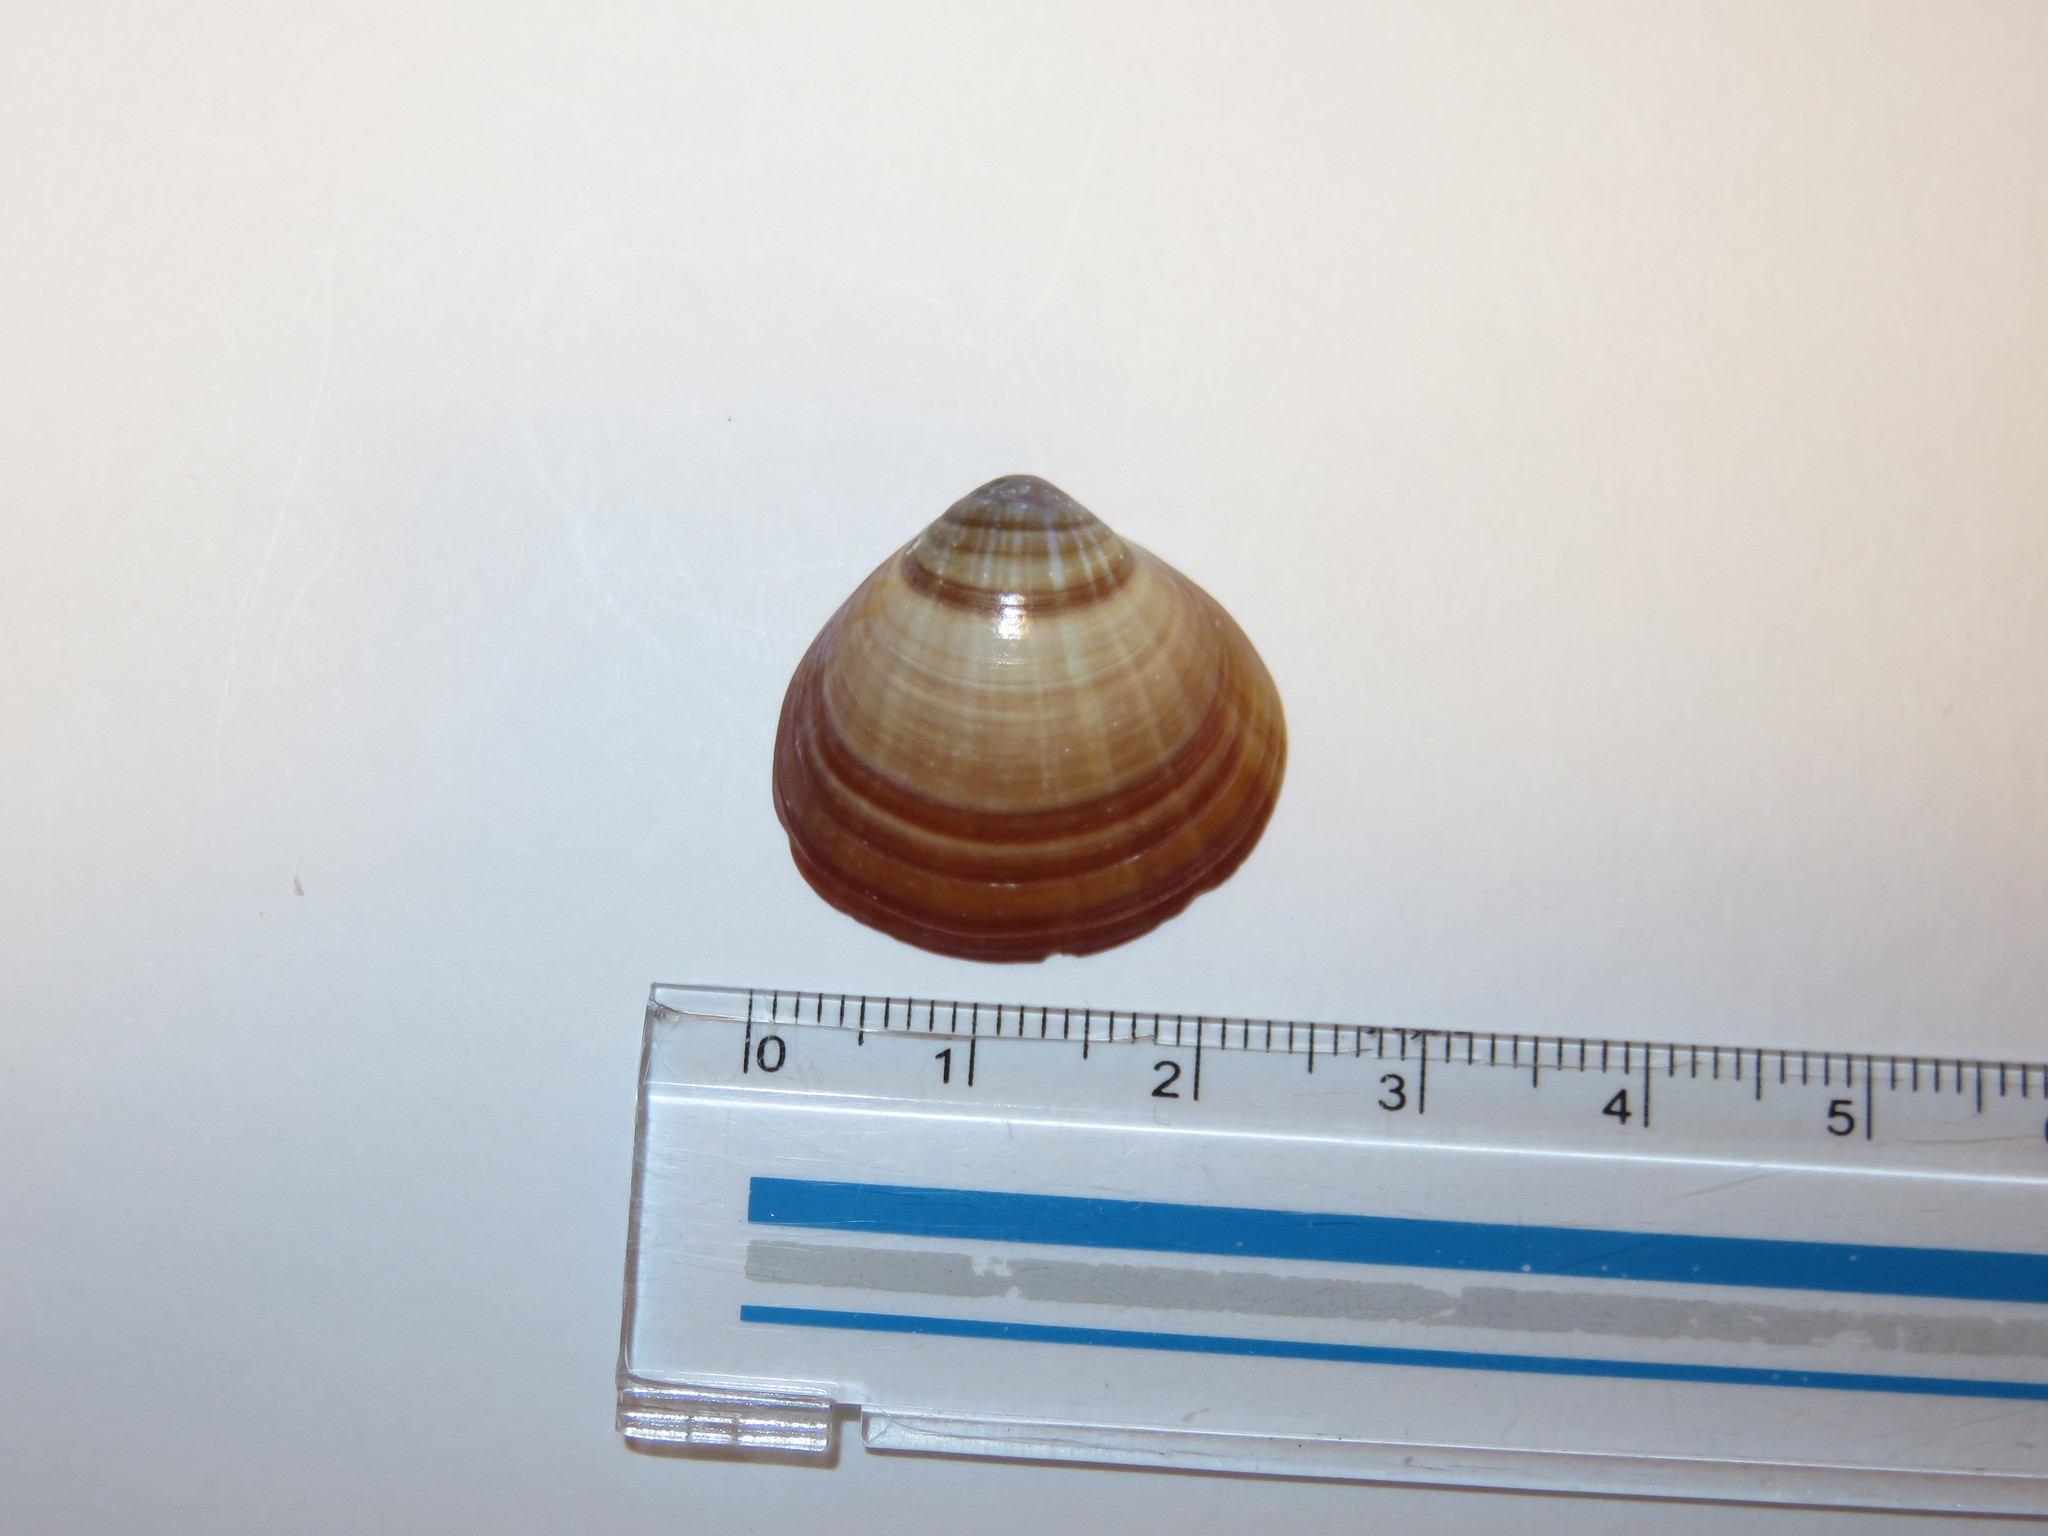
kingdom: Animalia
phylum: Mollusca
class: Bivalvia
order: Venerida
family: Cyrenidae
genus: Corbicula
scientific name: Corbicula japonica
